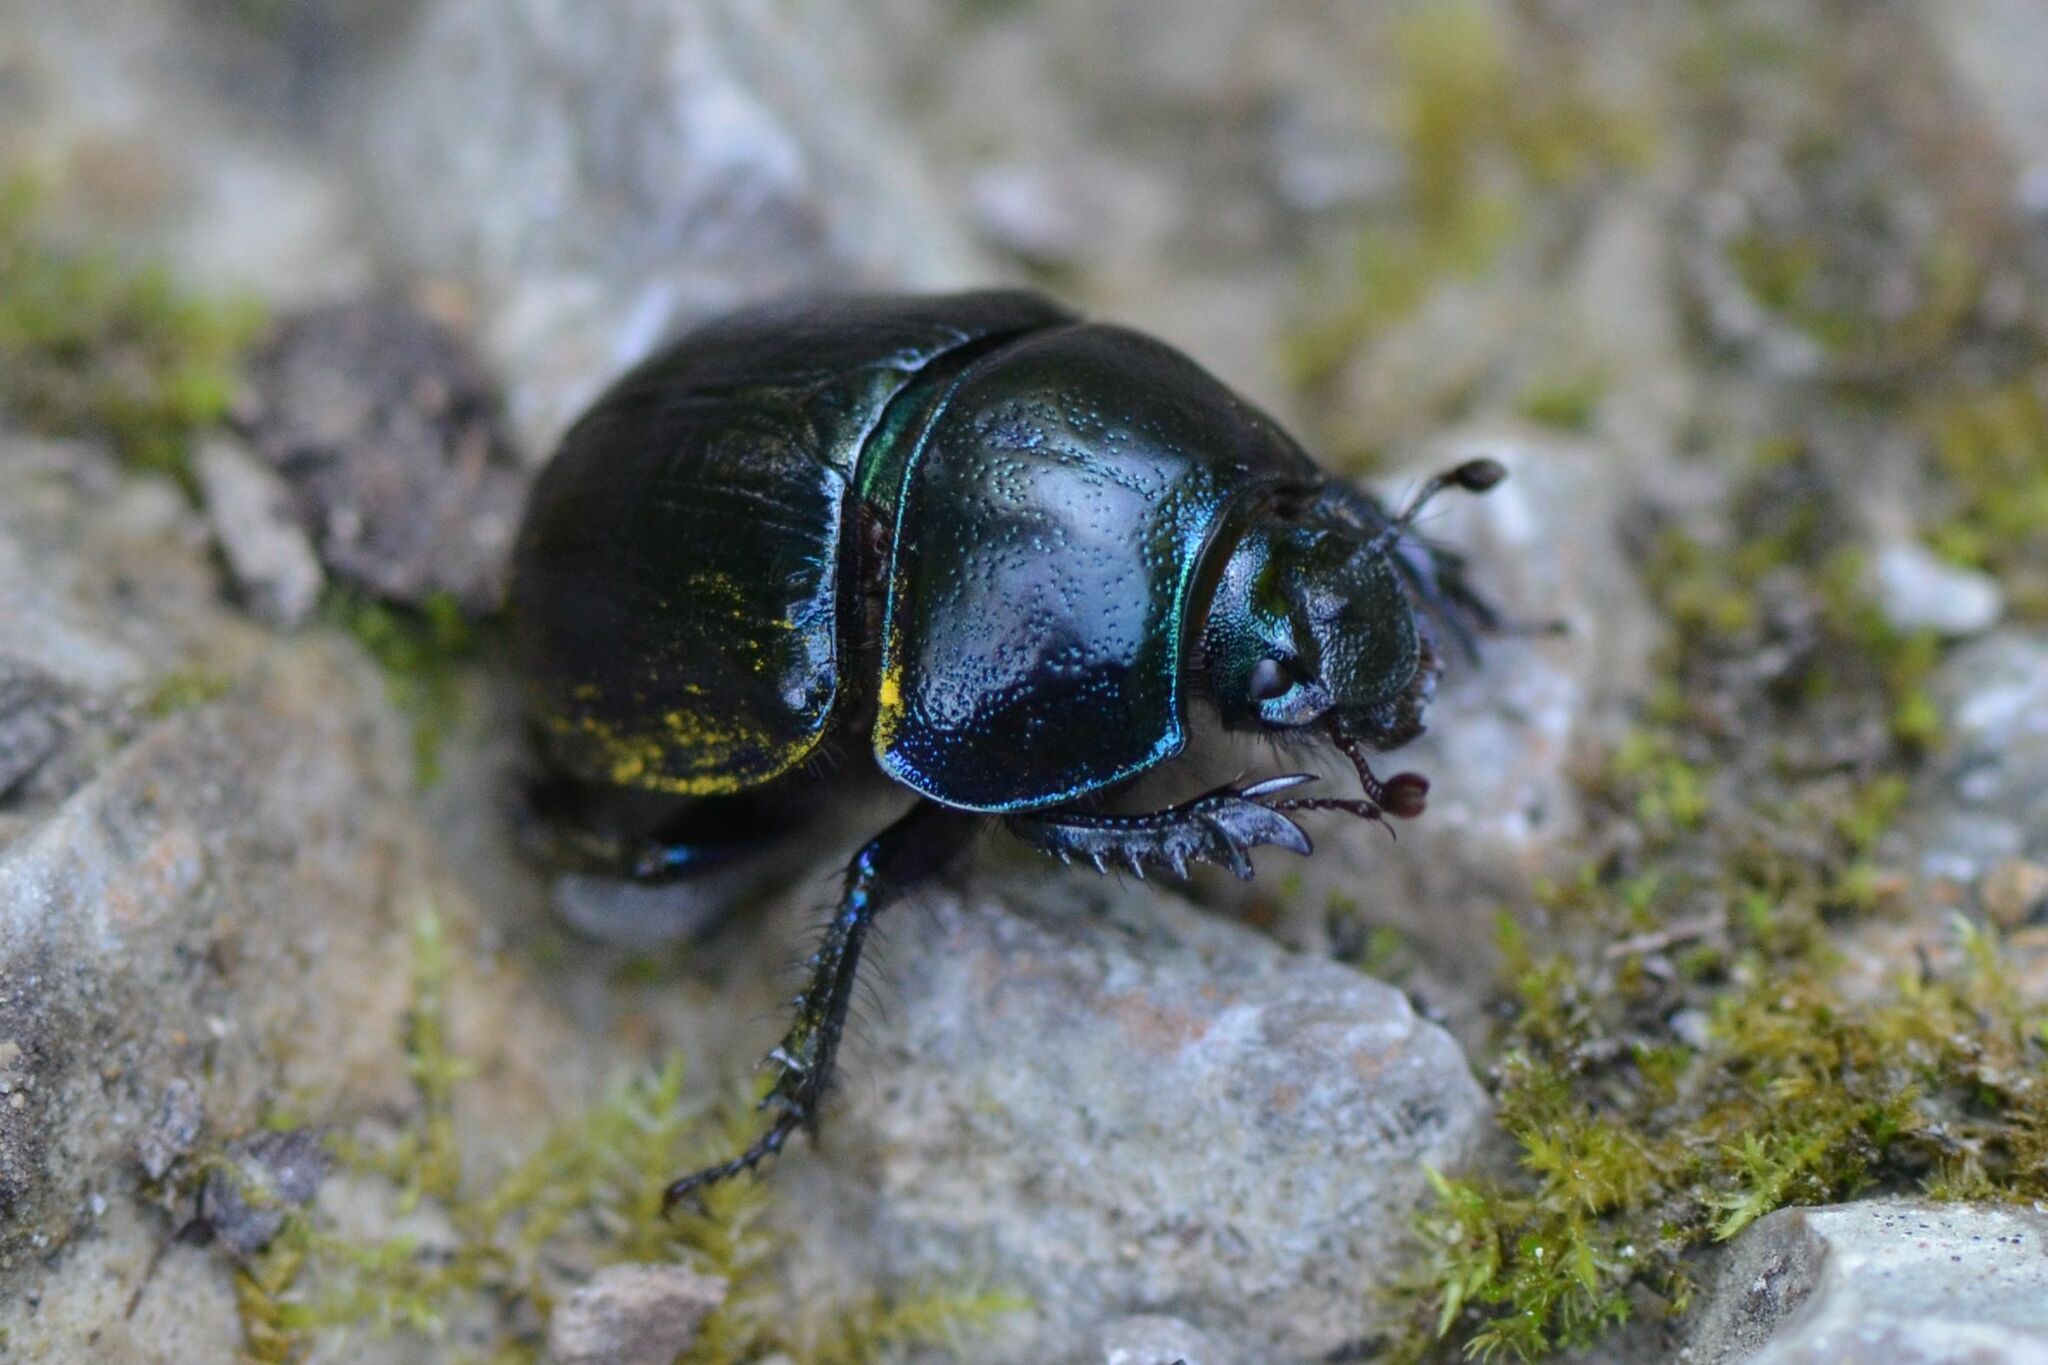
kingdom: Animalia
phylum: Arthropoda
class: Insecta
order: Coleoptera
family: Geotrupidae
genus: Anoplotrupes
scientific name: Anoplotrupes stercorosus
